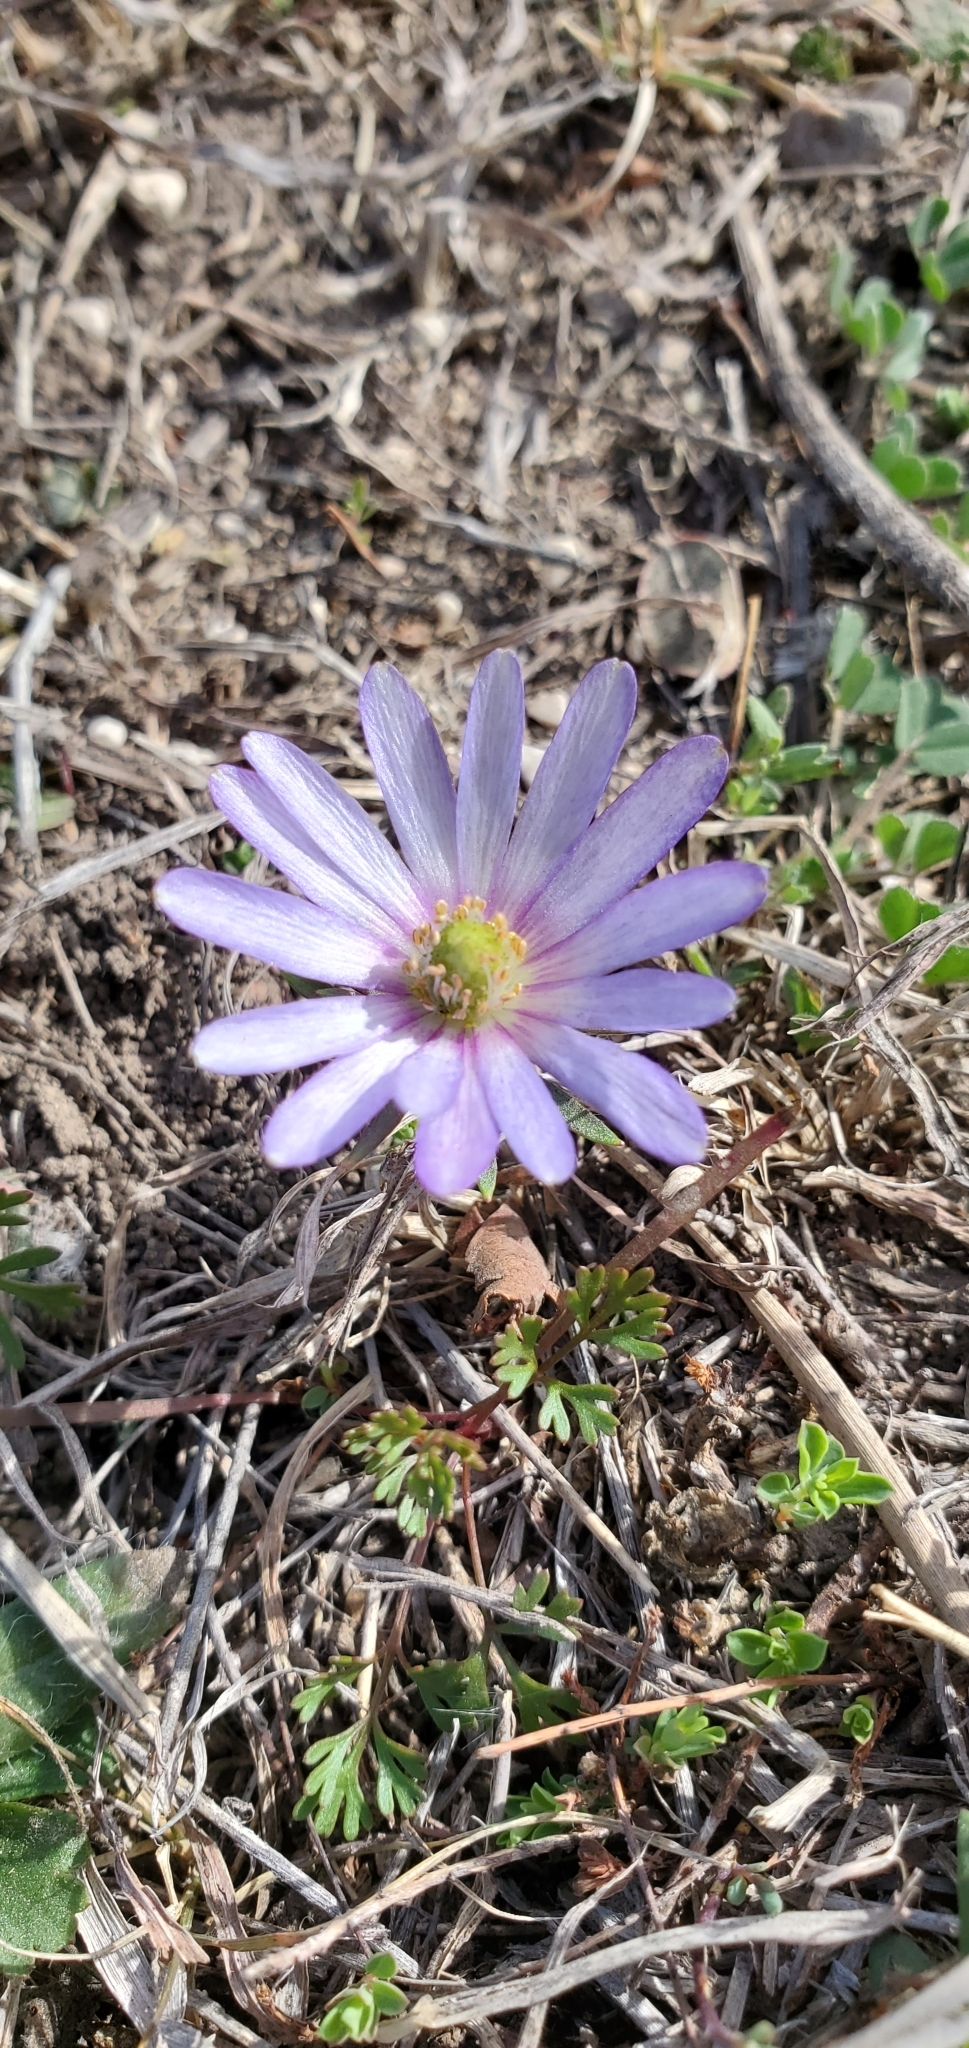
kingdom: Plantae
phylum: Tracheophyta
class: Magnoliopsida
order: Ranunculales
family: Ranunculaceae
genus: Anemone
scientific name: Anemone berlandieri
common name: Ten-petal anemone
